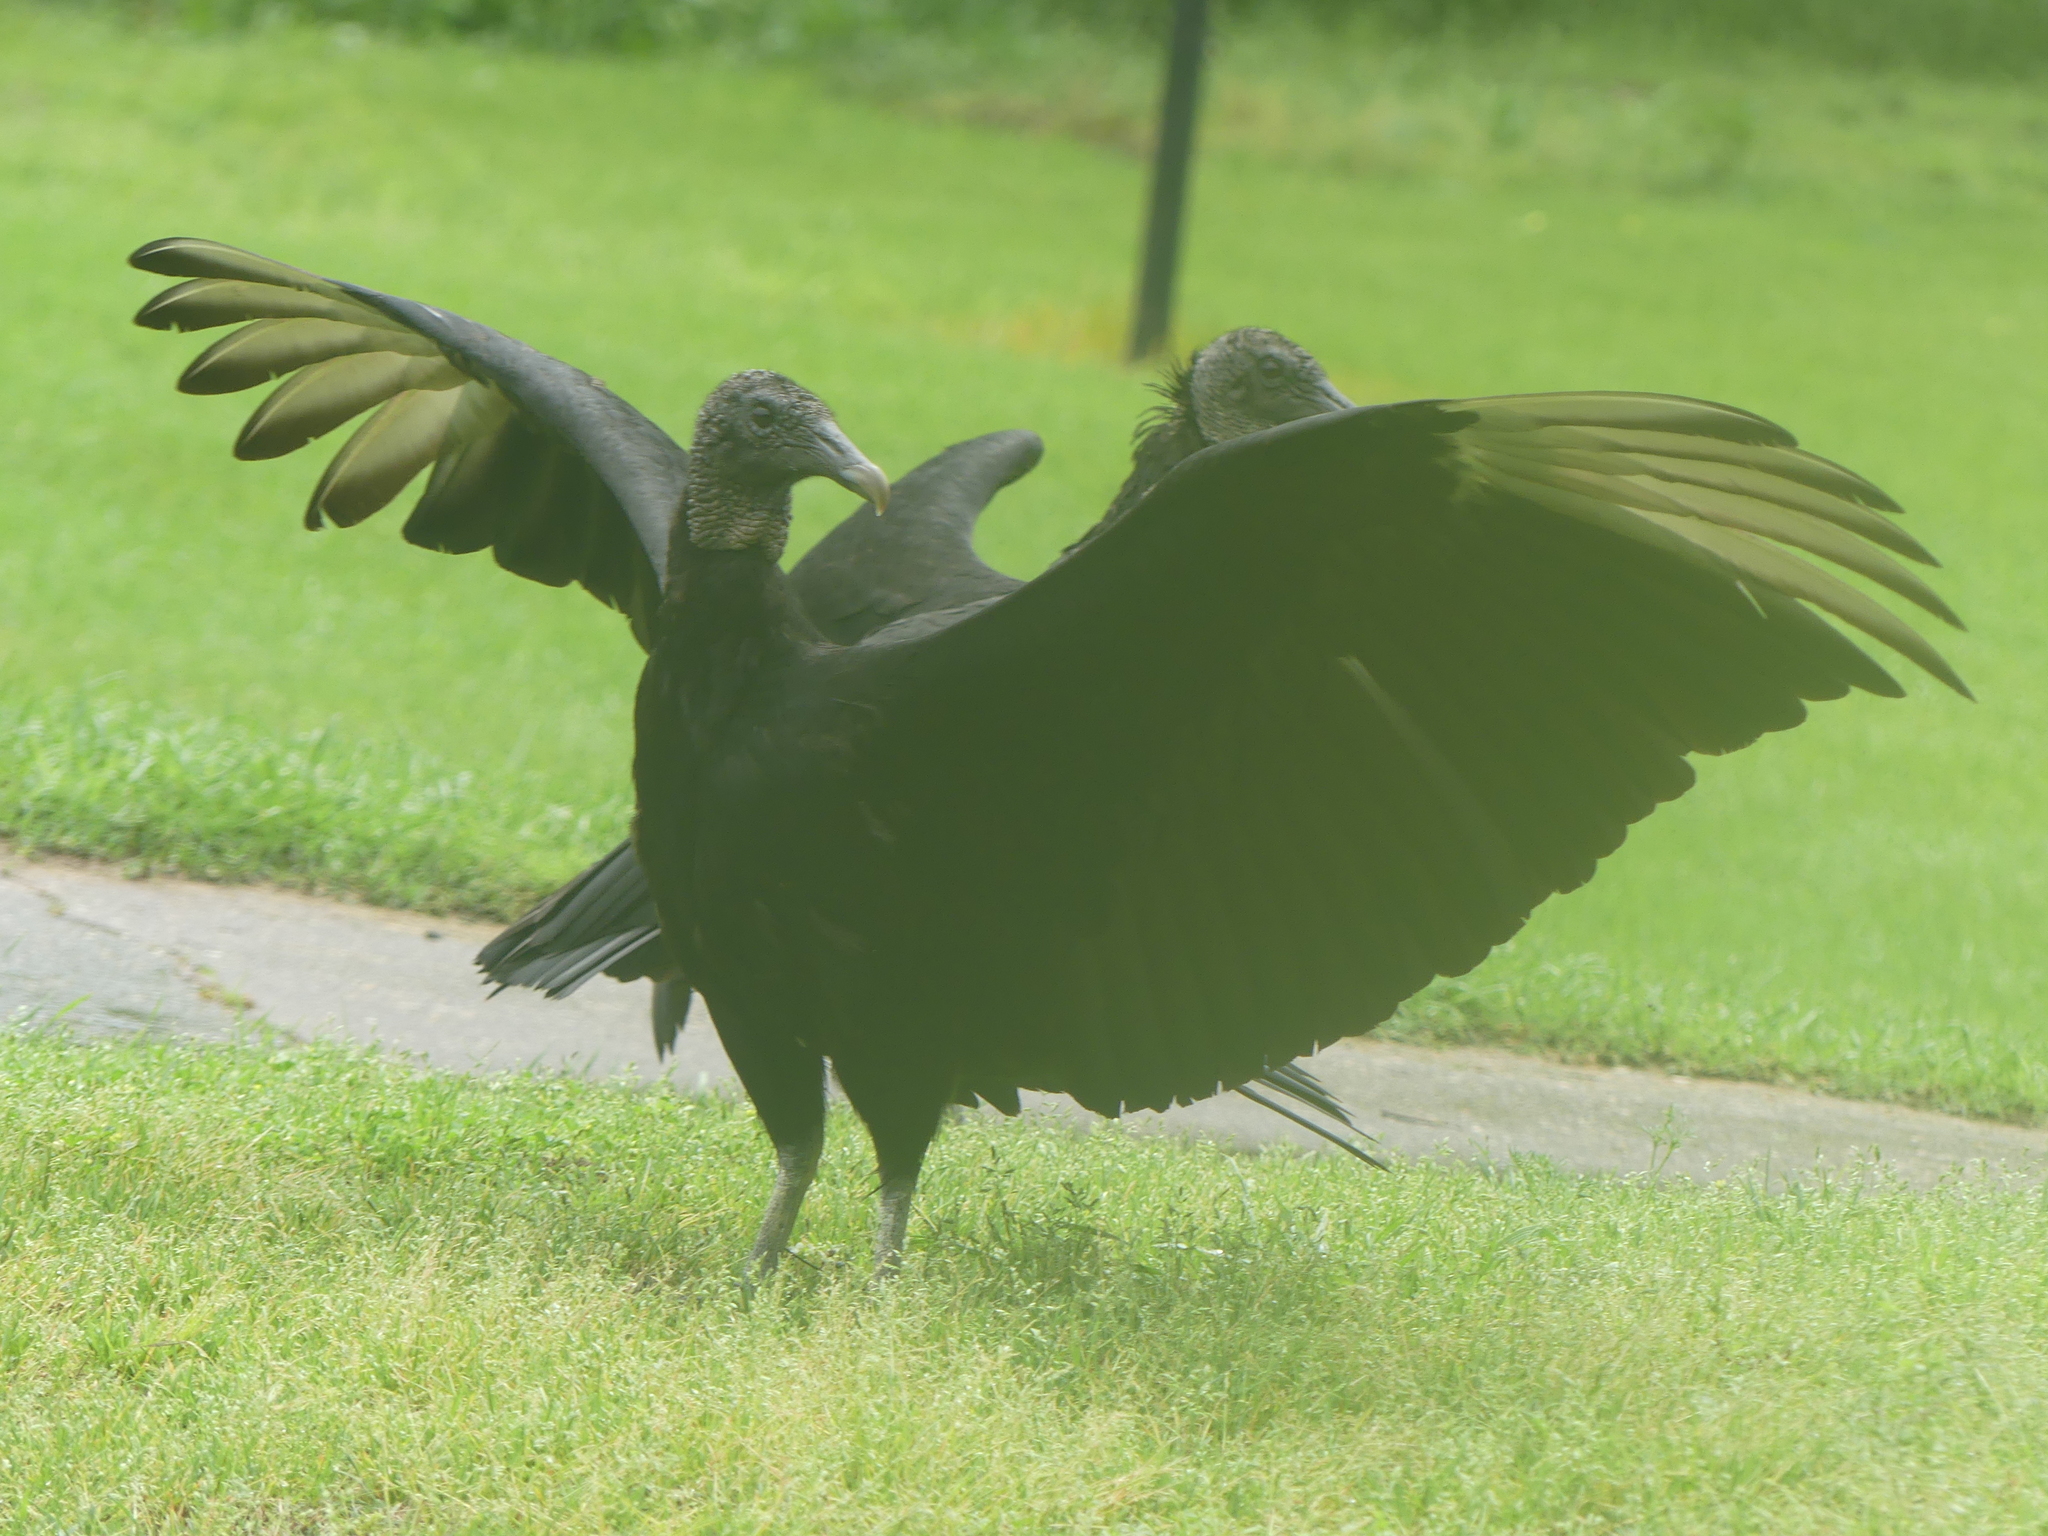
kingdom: Animalia
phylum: Chordata
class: Aves
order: Accipitriformes
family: Cathartidae
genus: Coragyps
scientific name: Coragyps atratus
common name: Black vulture
